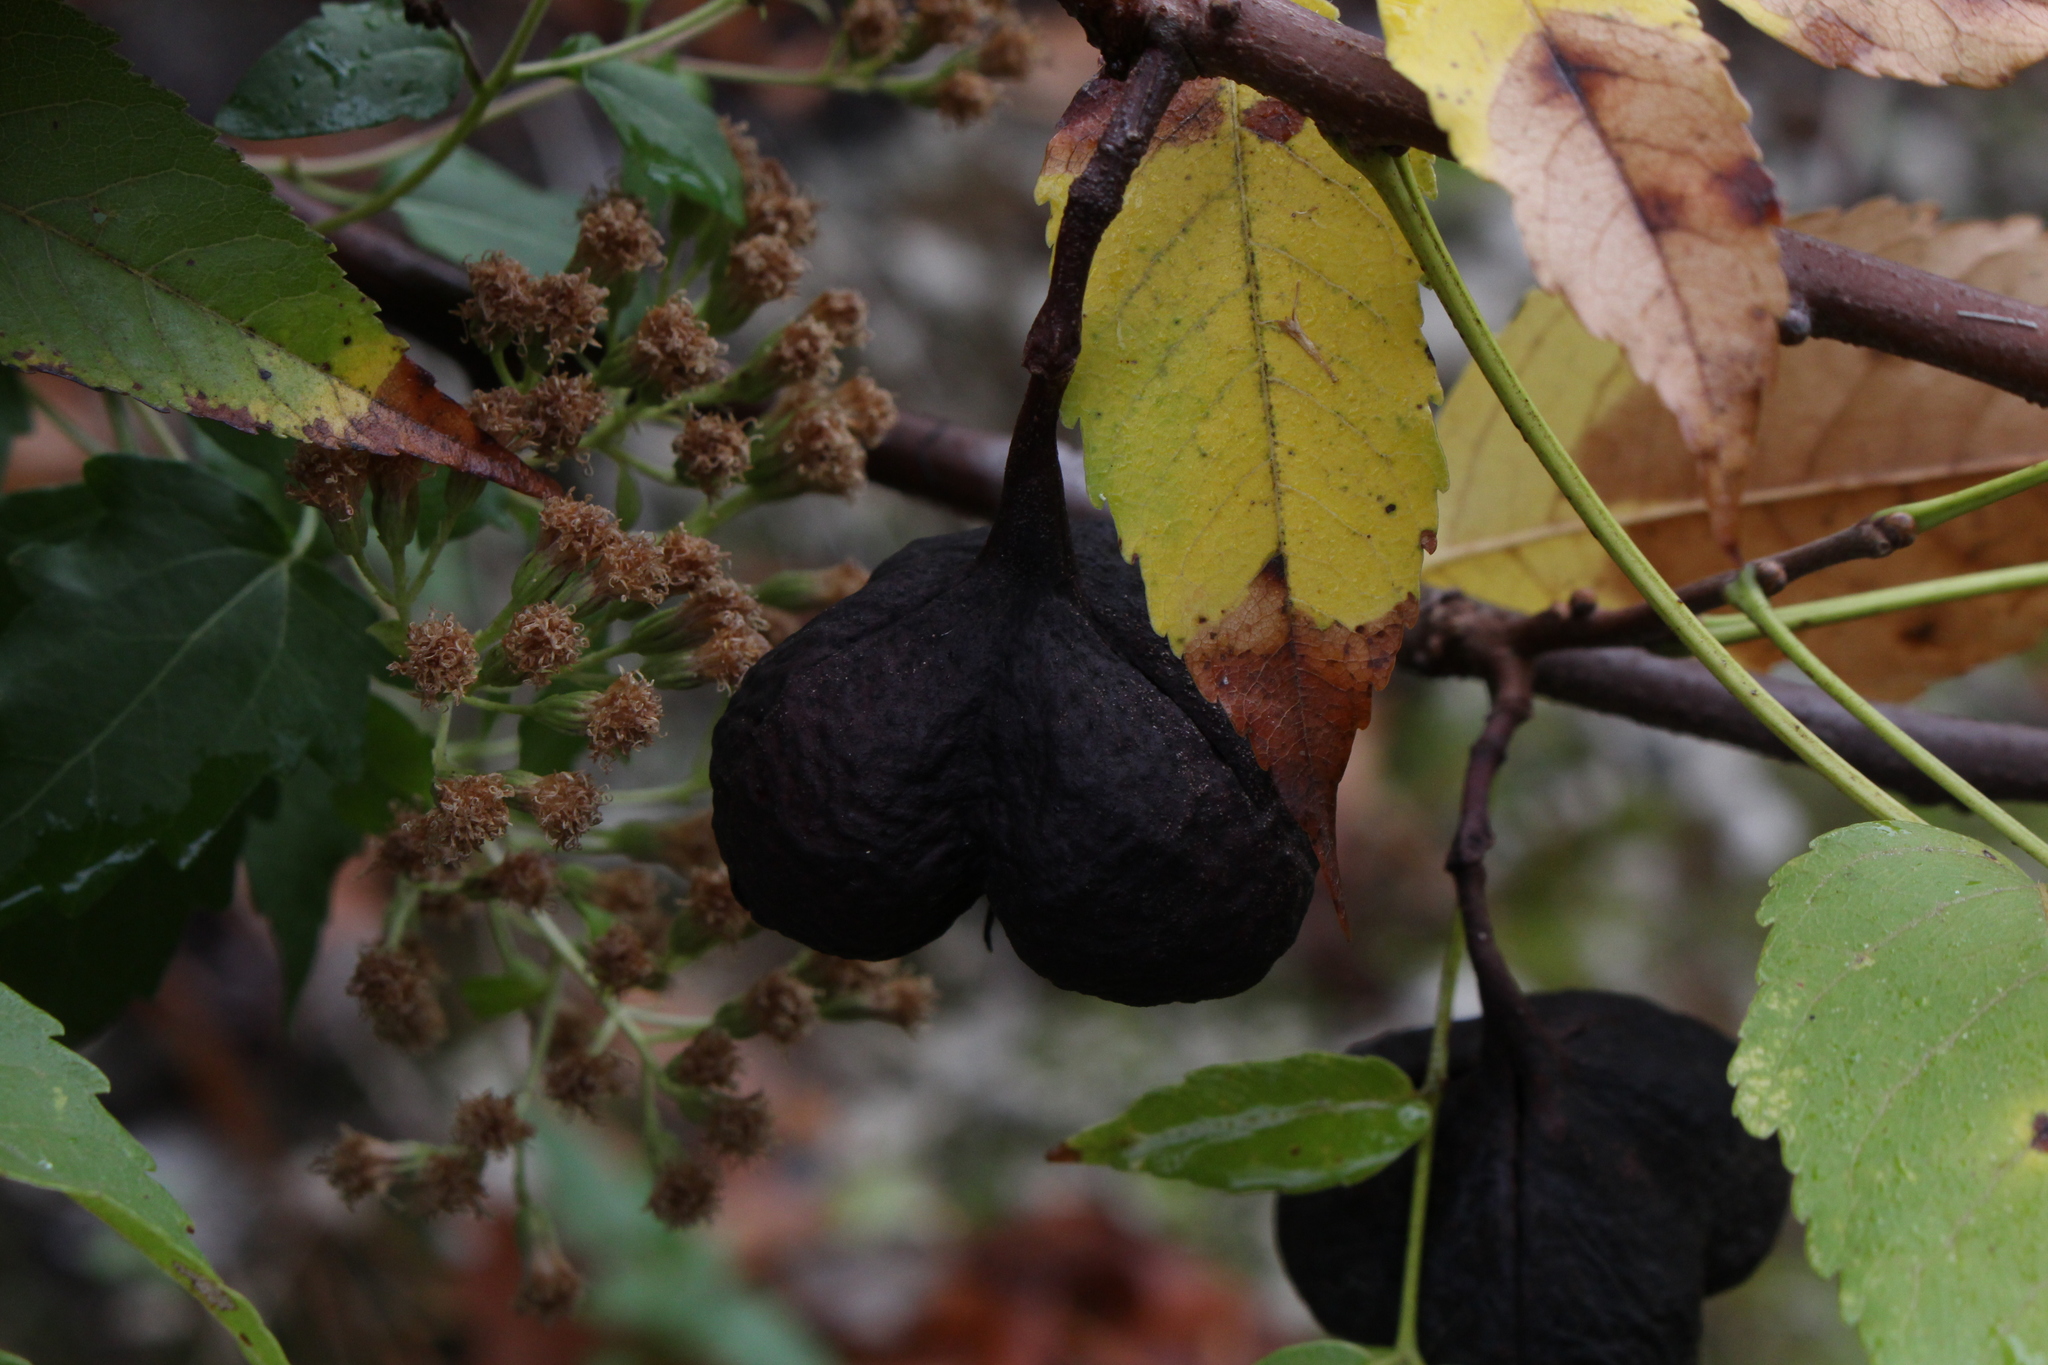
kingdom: Plantae
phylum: Tracheophyta
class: Magnoliopsida
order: Sapindales
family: Sapindaceae
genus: Ungnadia
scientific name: Ungnadia speciosa
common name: Texas-buckeye
